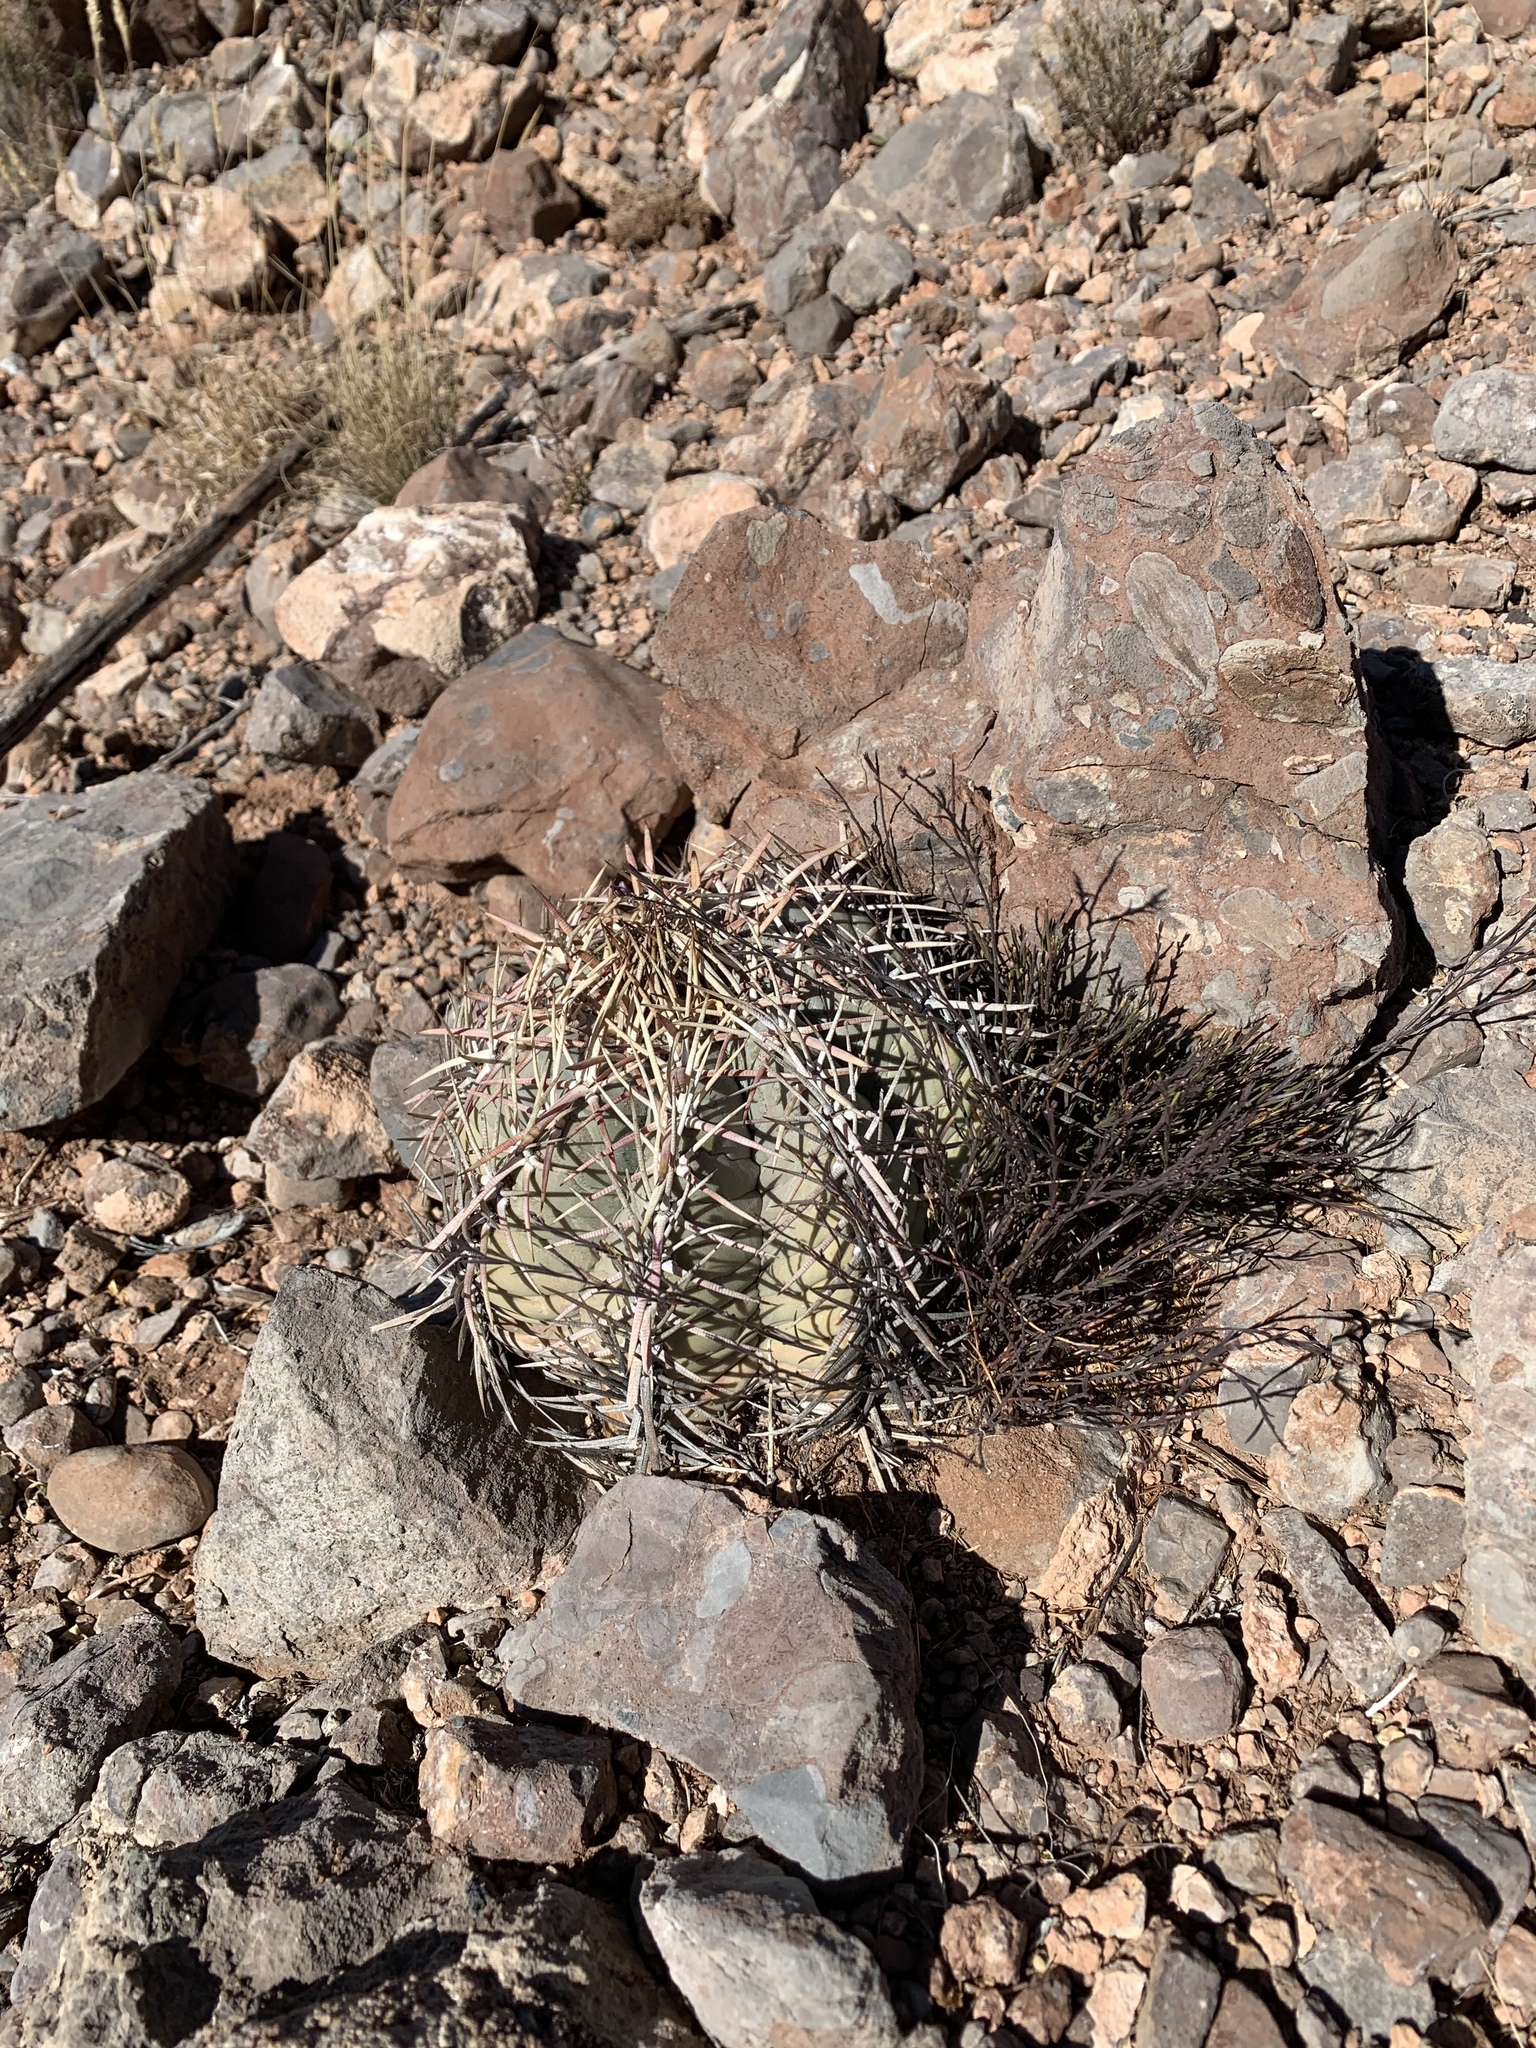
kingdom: Plantae
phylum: Tracheophyta
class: Magnoliopsida
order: Caryophyllales
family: Cactaceae
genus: Echinocactus
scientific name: Echinocactus horizonthalonius
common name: Devilshead
